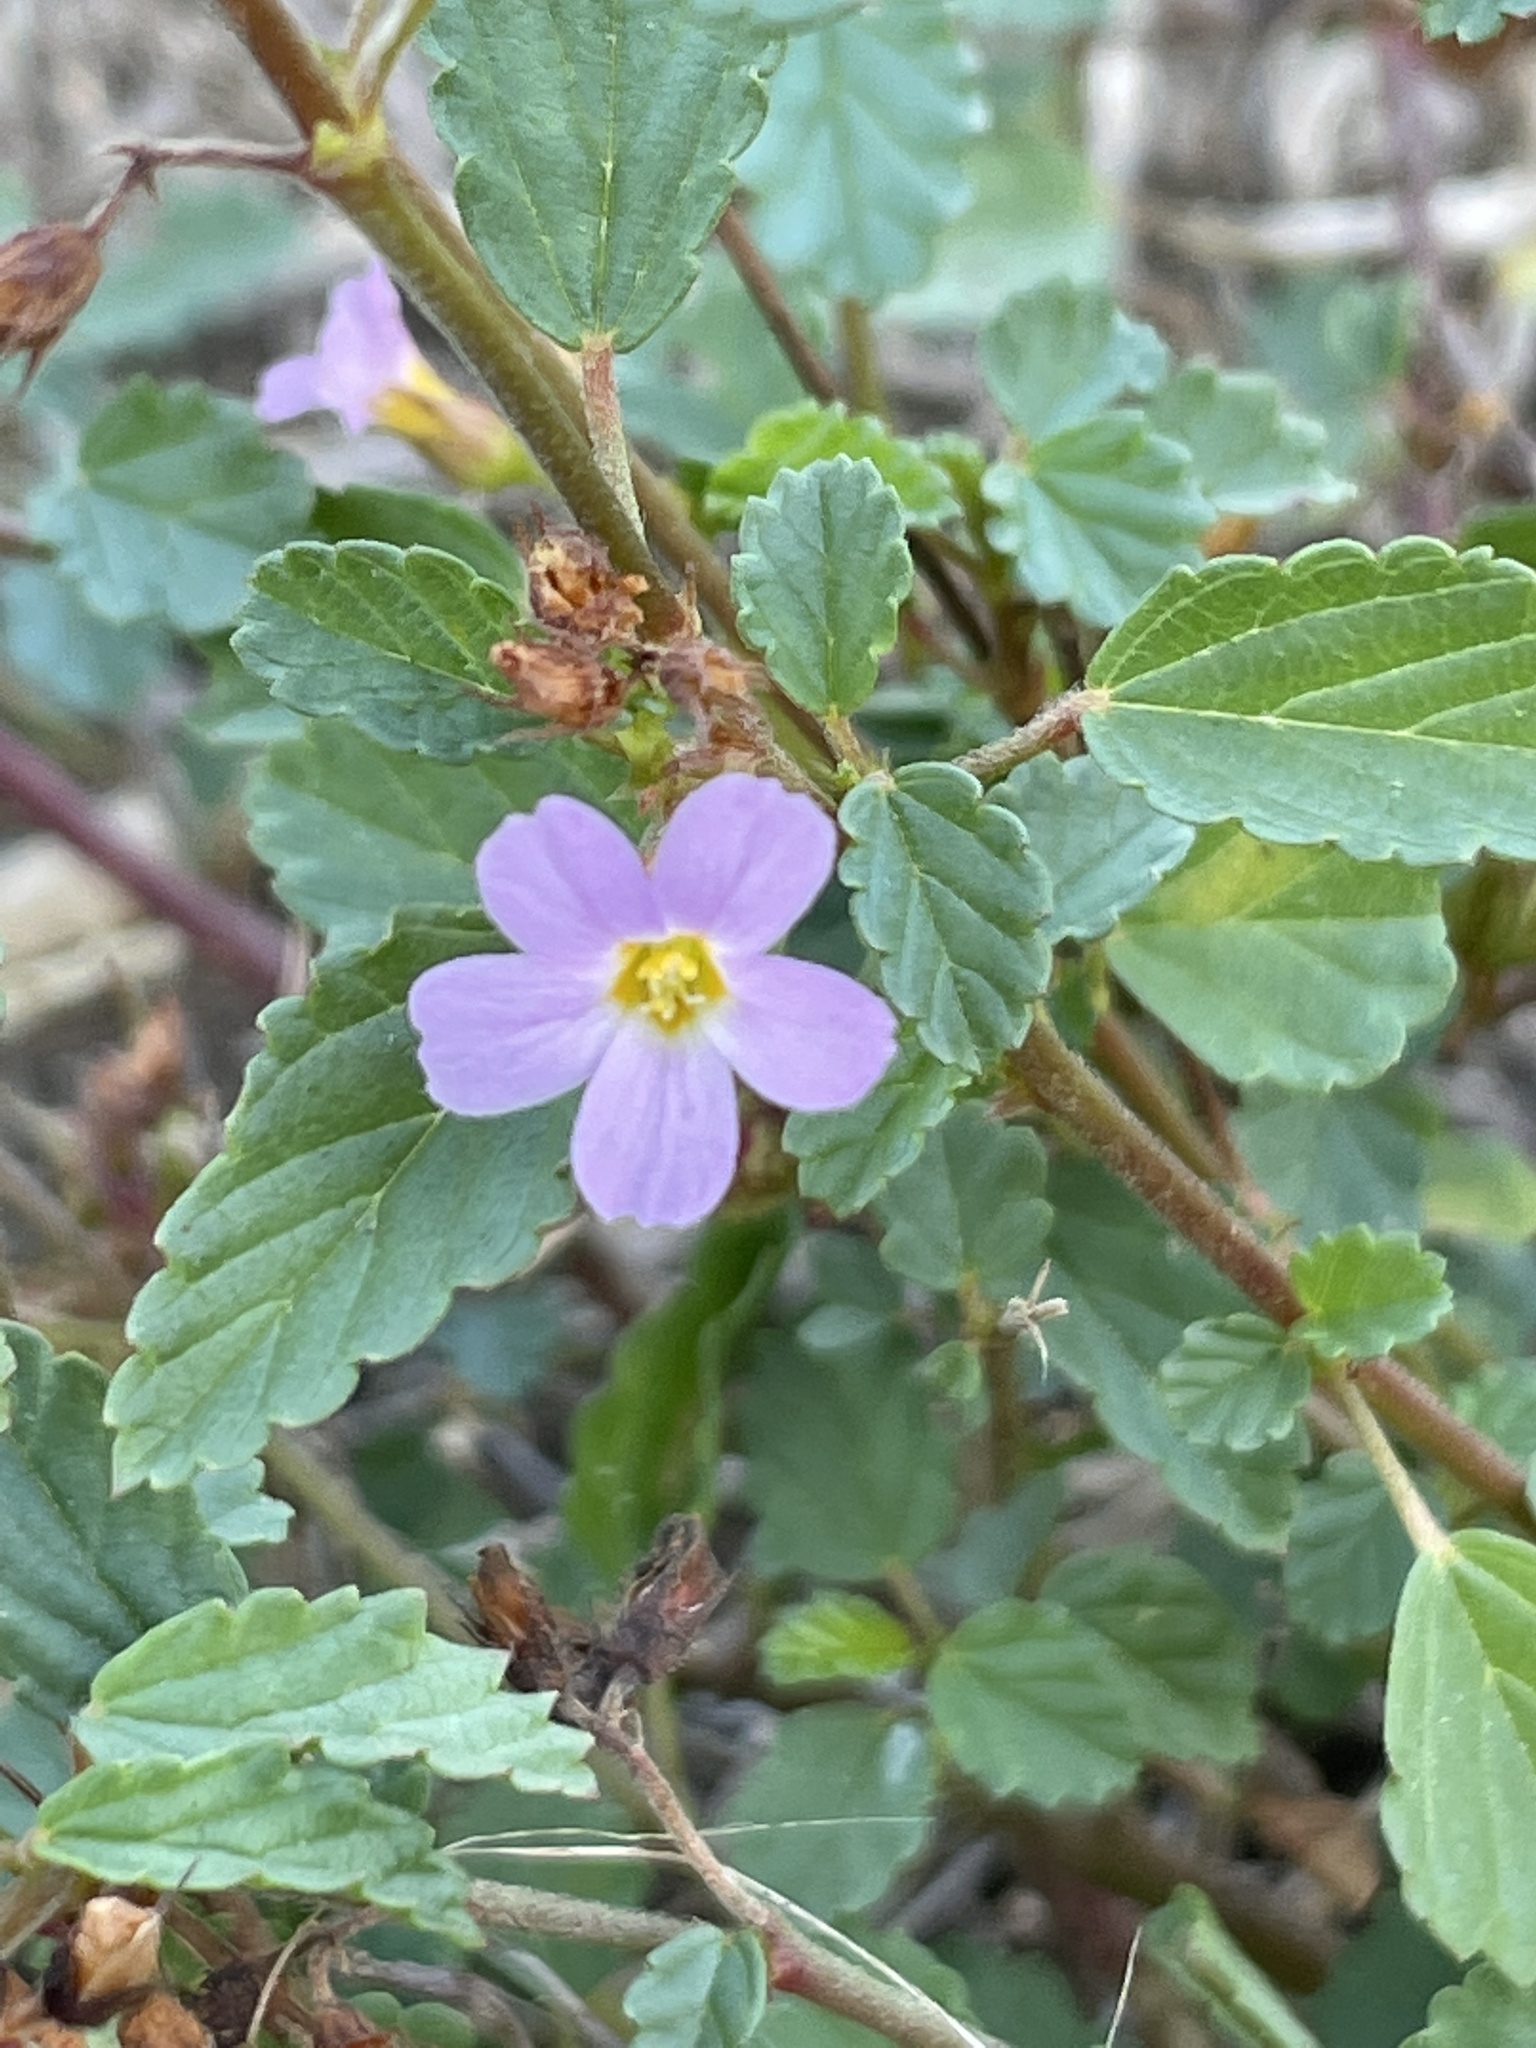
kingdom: Plantae
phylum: Tracheophyta
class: Magnoliopsida
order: Malvales
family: Malvaceae
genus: Melochia
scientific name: Melochia pyramidata
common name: Pyramidflower
